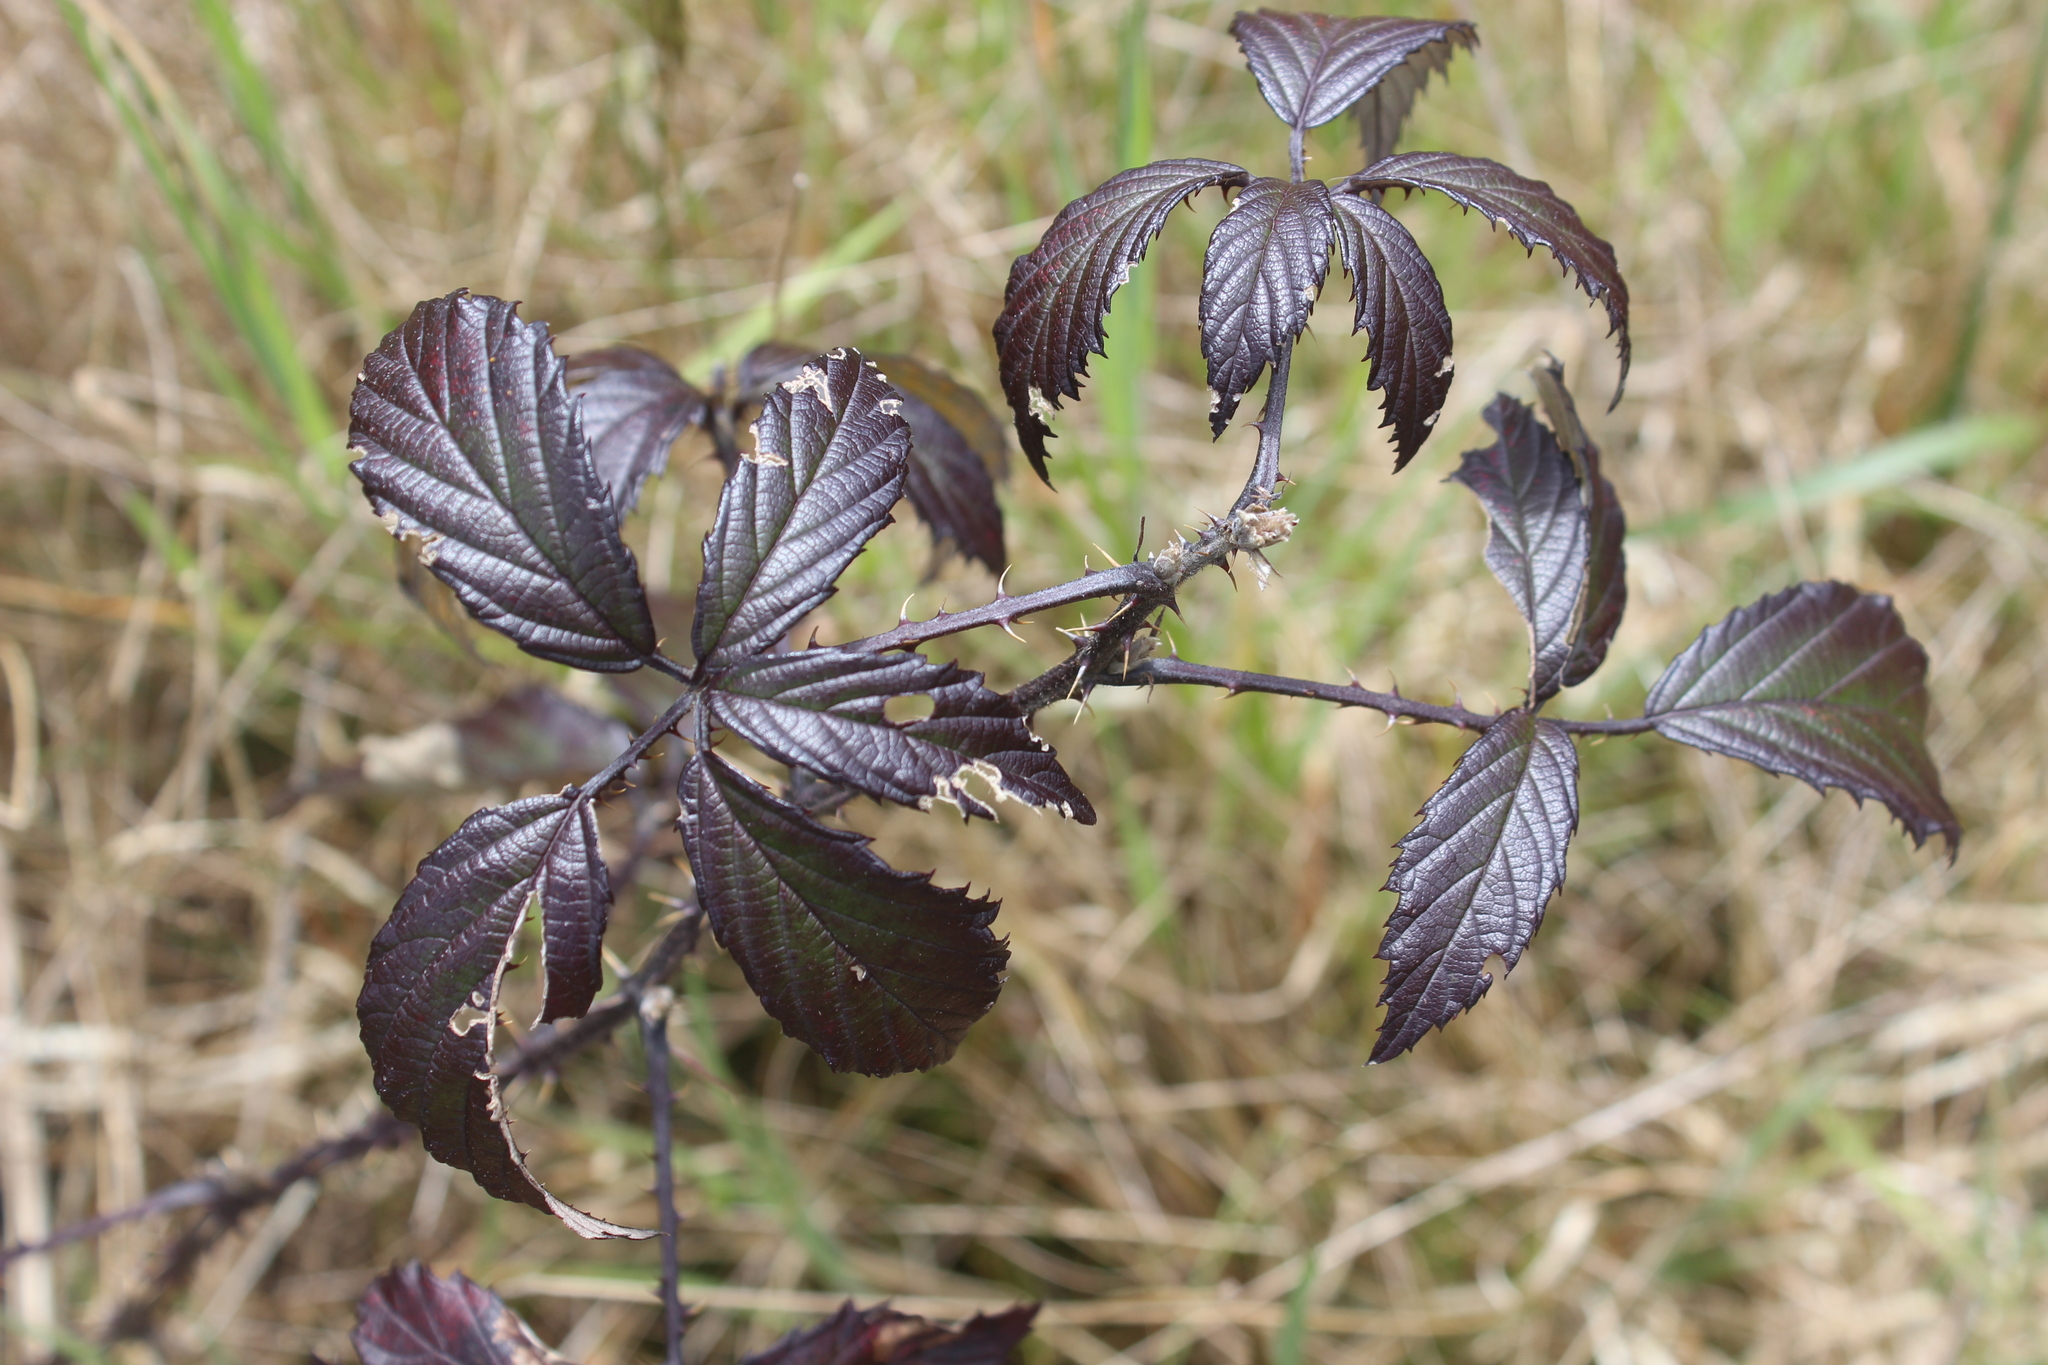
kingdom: Plantae
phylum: Tracheophyta
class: Magnoliopsida
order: Rosales
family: Rosaceae
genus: Rubus
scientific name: Rubus laciniatus
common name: Evergreen blackberry
